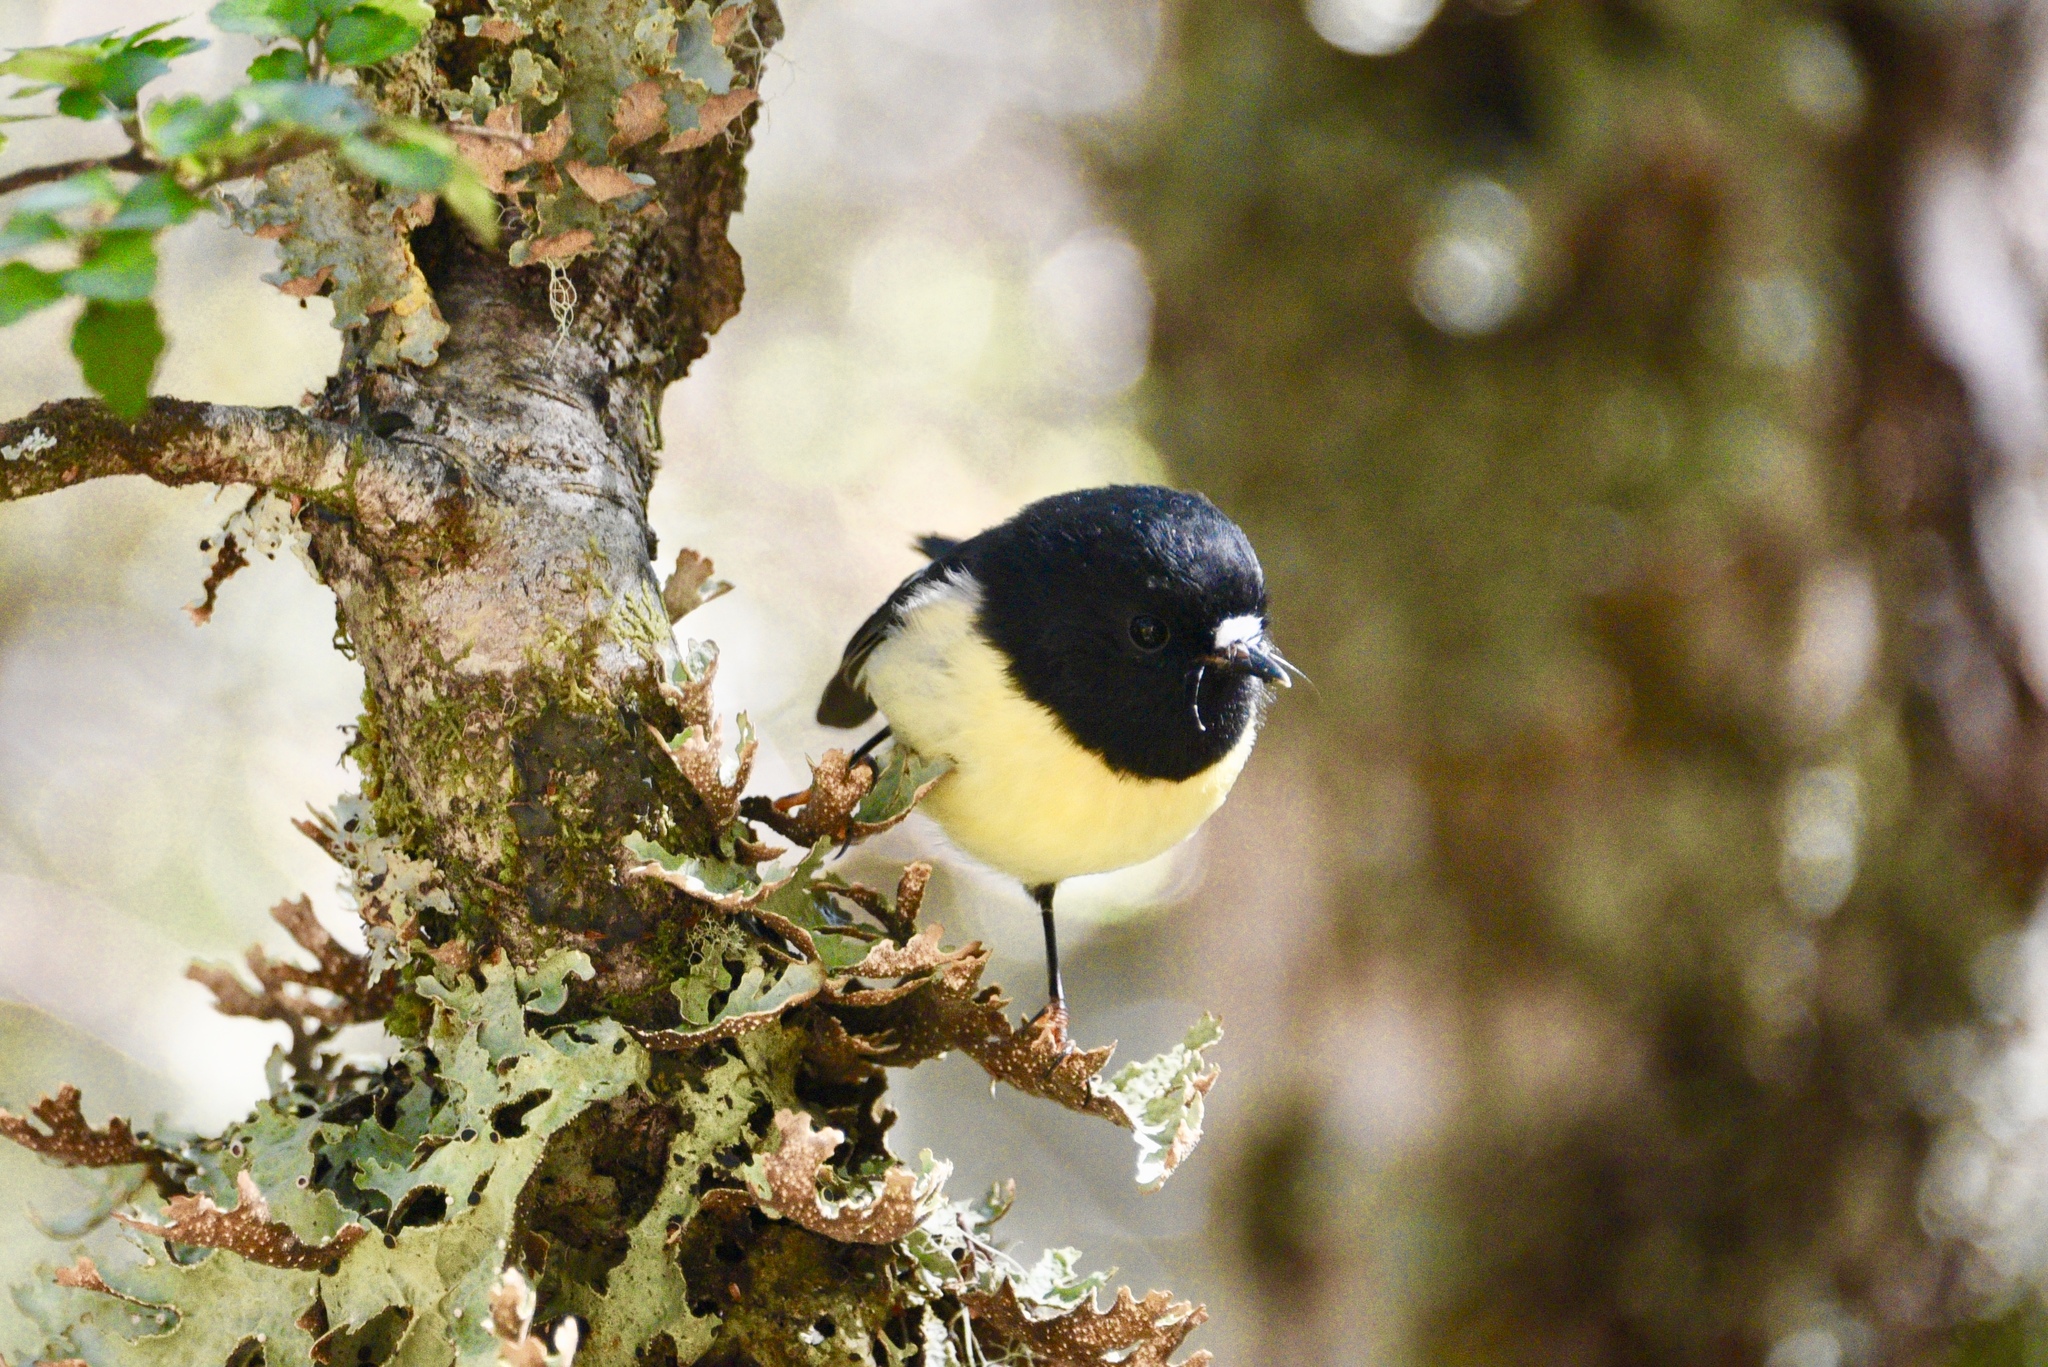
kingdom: Animalia
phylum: Chordata
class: Aves
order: Passeriformes
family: Petroicidae
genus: Petroica
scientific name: Petroica macrocephala
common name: Tomtit
